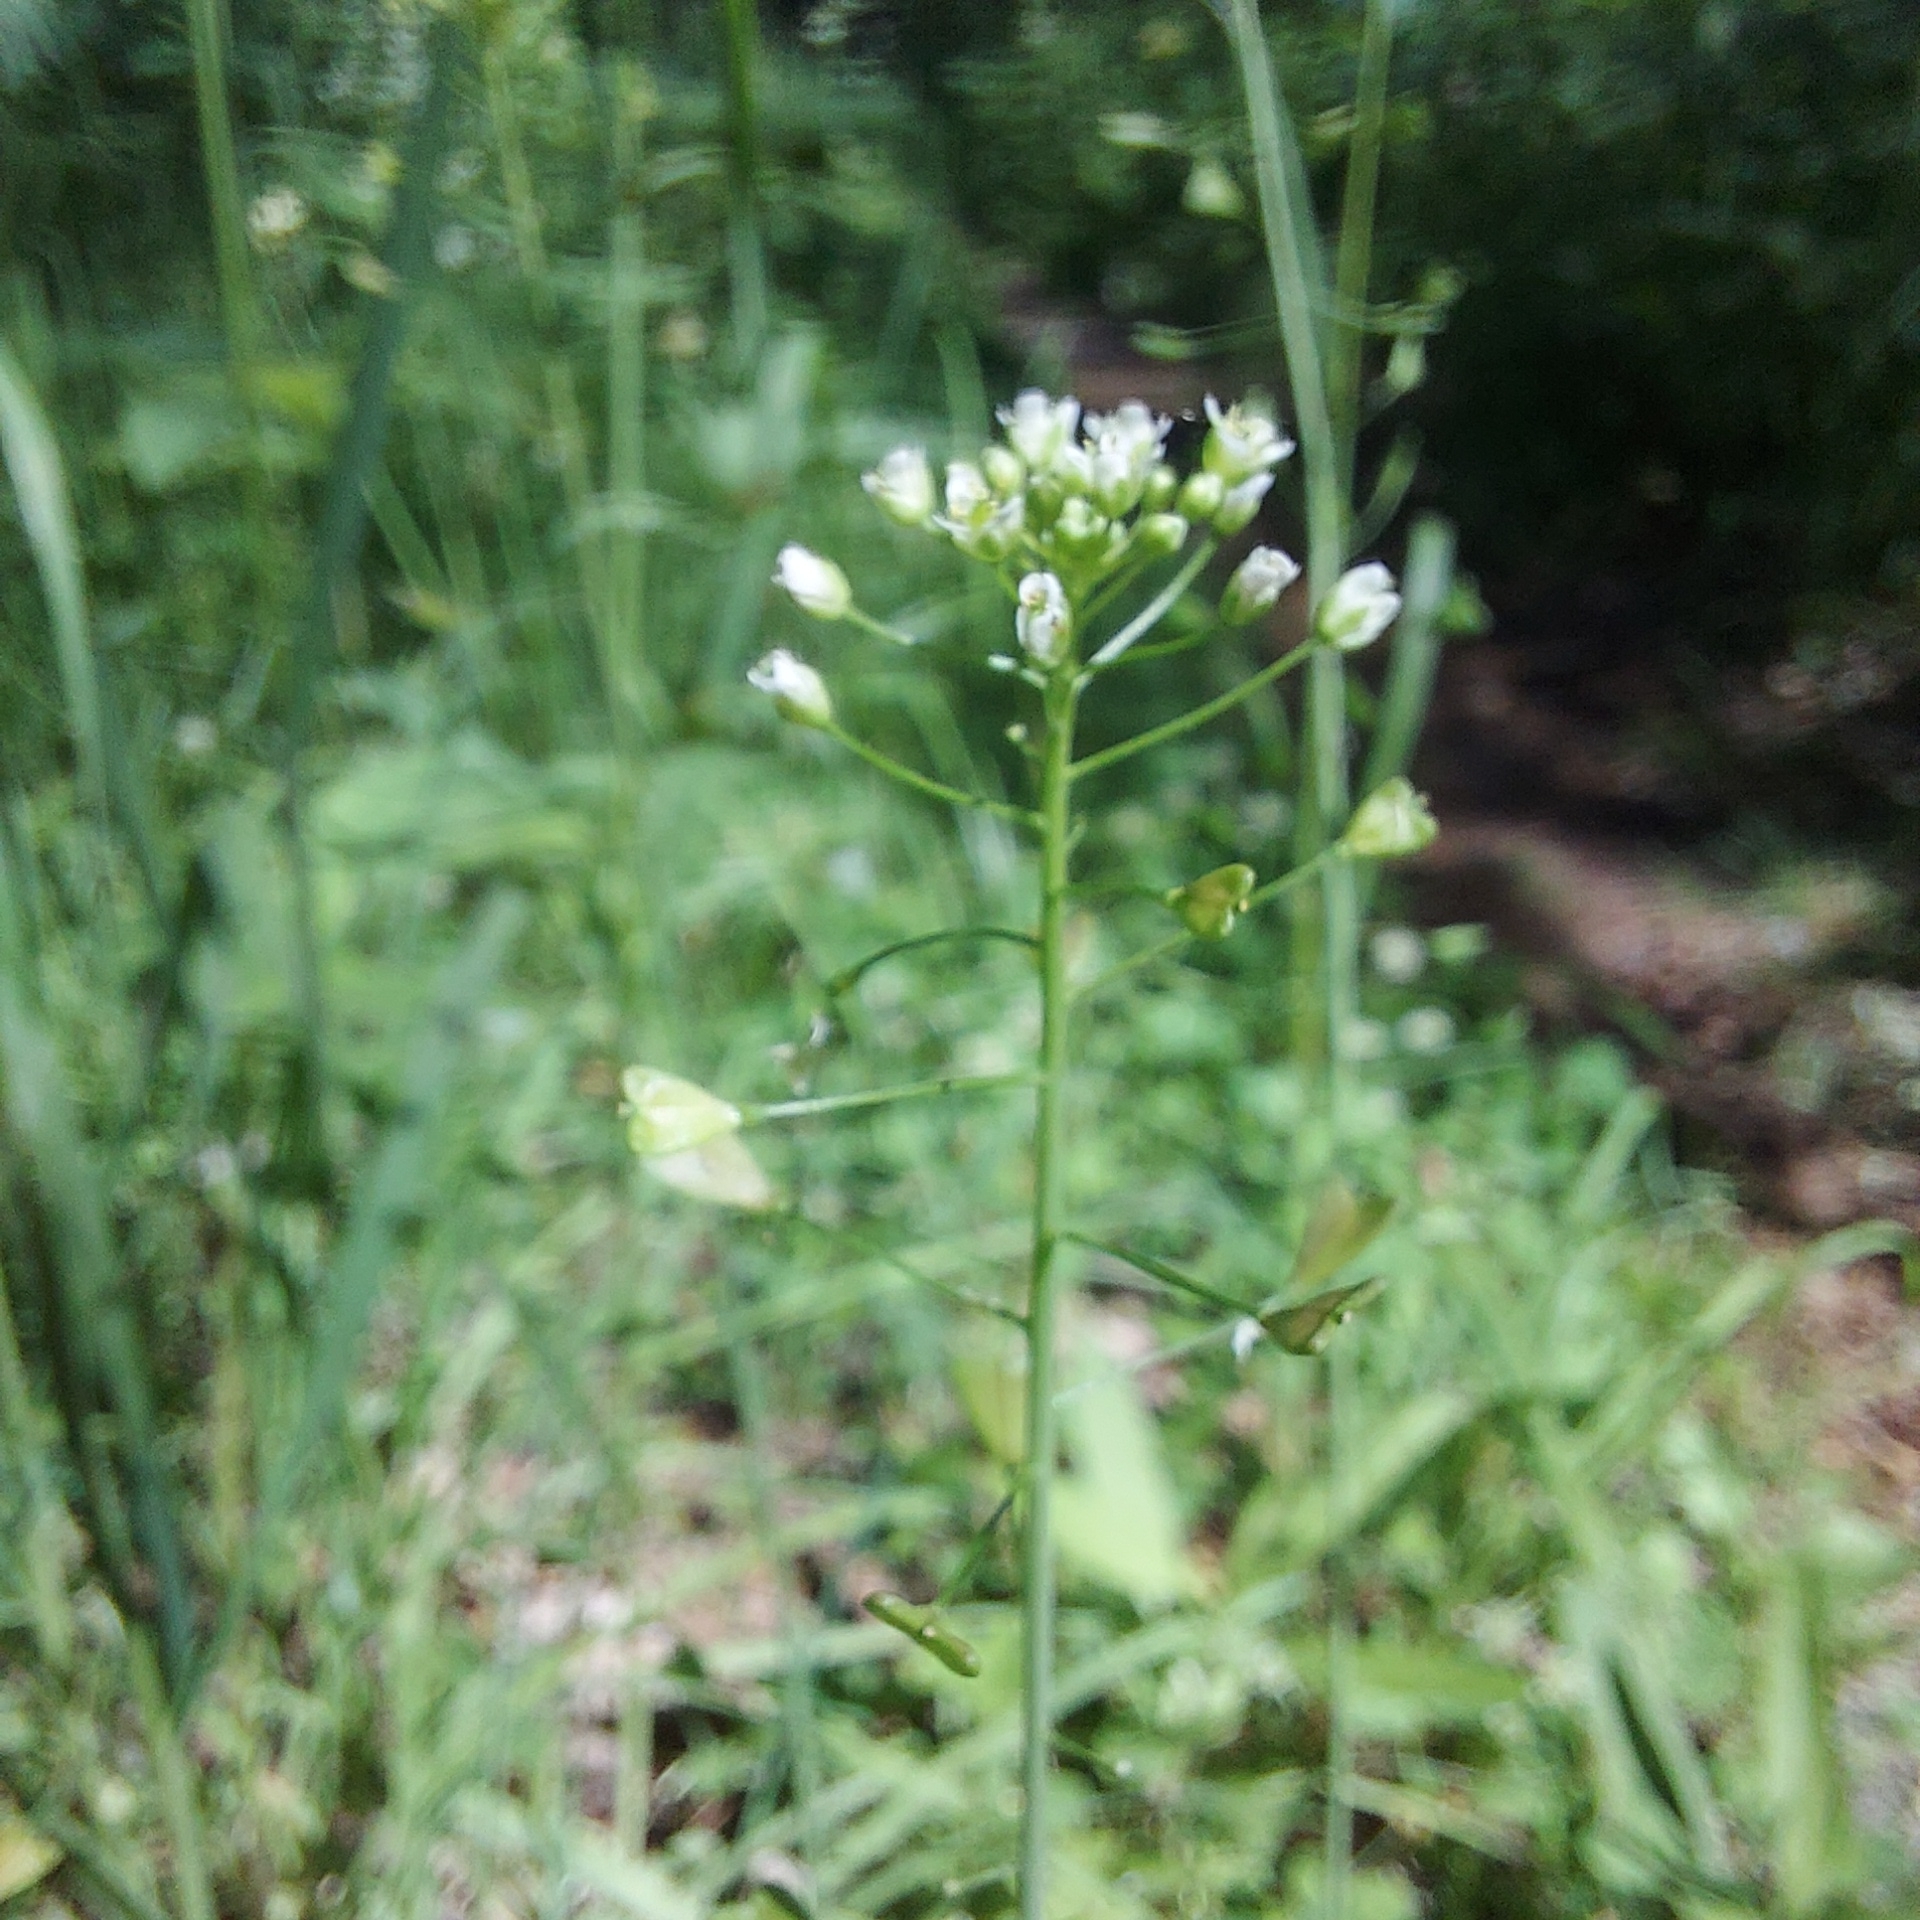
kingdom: Plantae
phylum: Tracheophyta
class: Magnoliopsida
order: Brassicales
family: Brassicaceae
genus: Capsella
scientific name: Capsella bursa-pastoris
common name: Shepherd's purse
